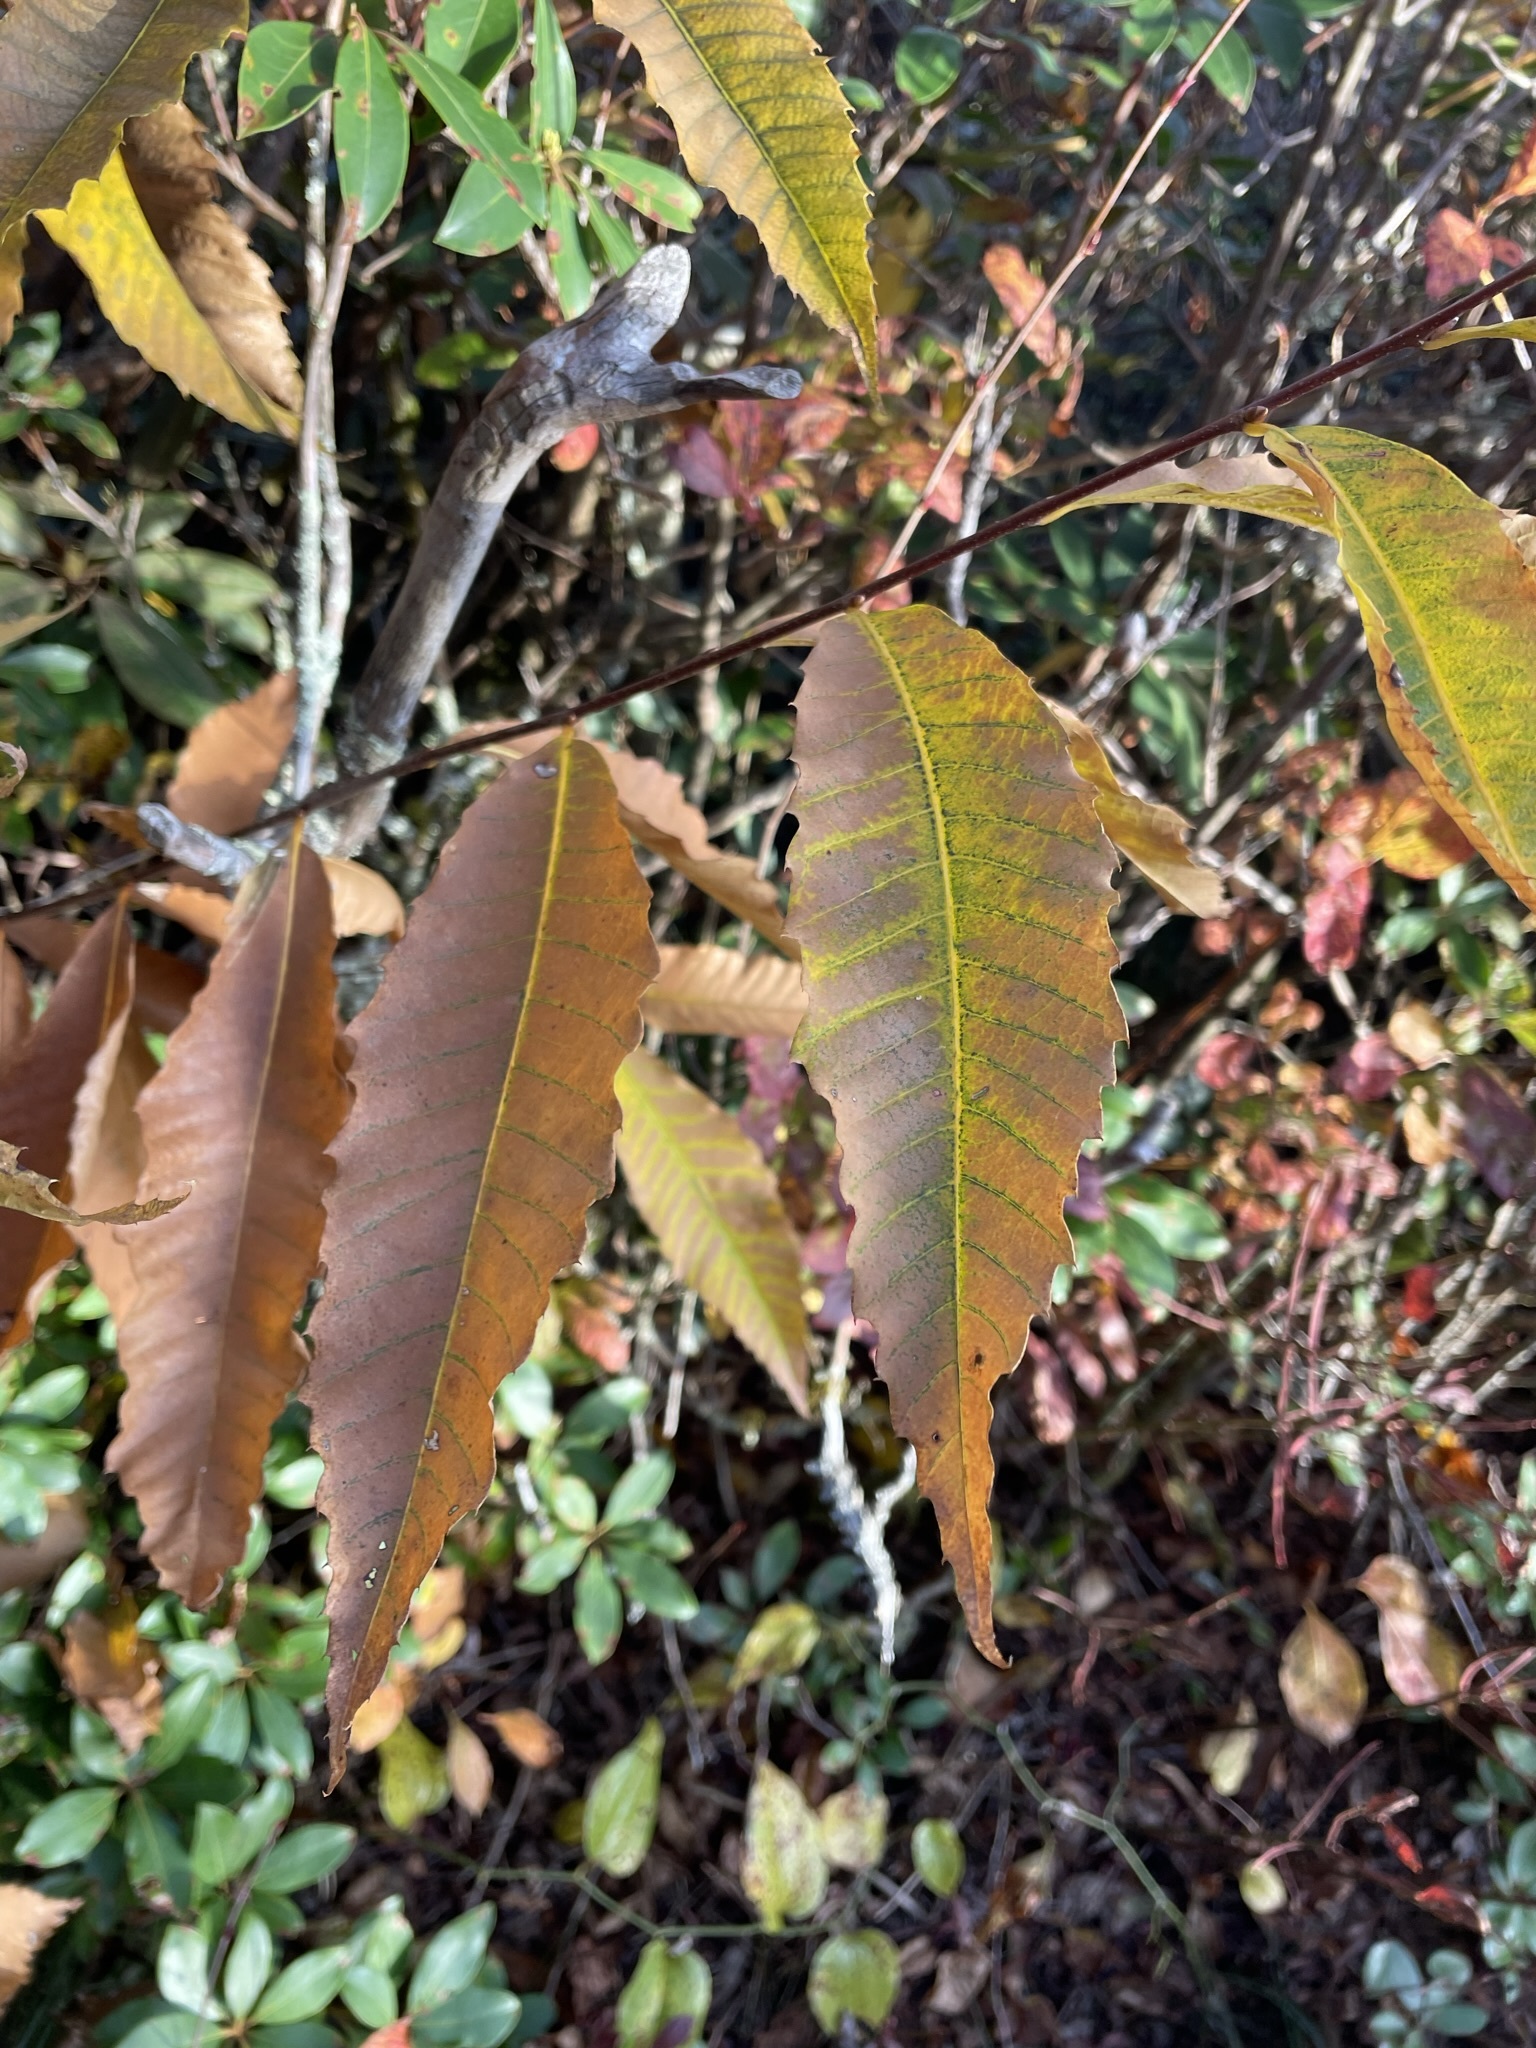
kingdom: Plantae
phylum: Tracheophyta
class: Magnoliopsida
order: Fagales
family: Fagaceae
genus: Castanea
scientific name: Castanea dentata
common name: American chestnut
